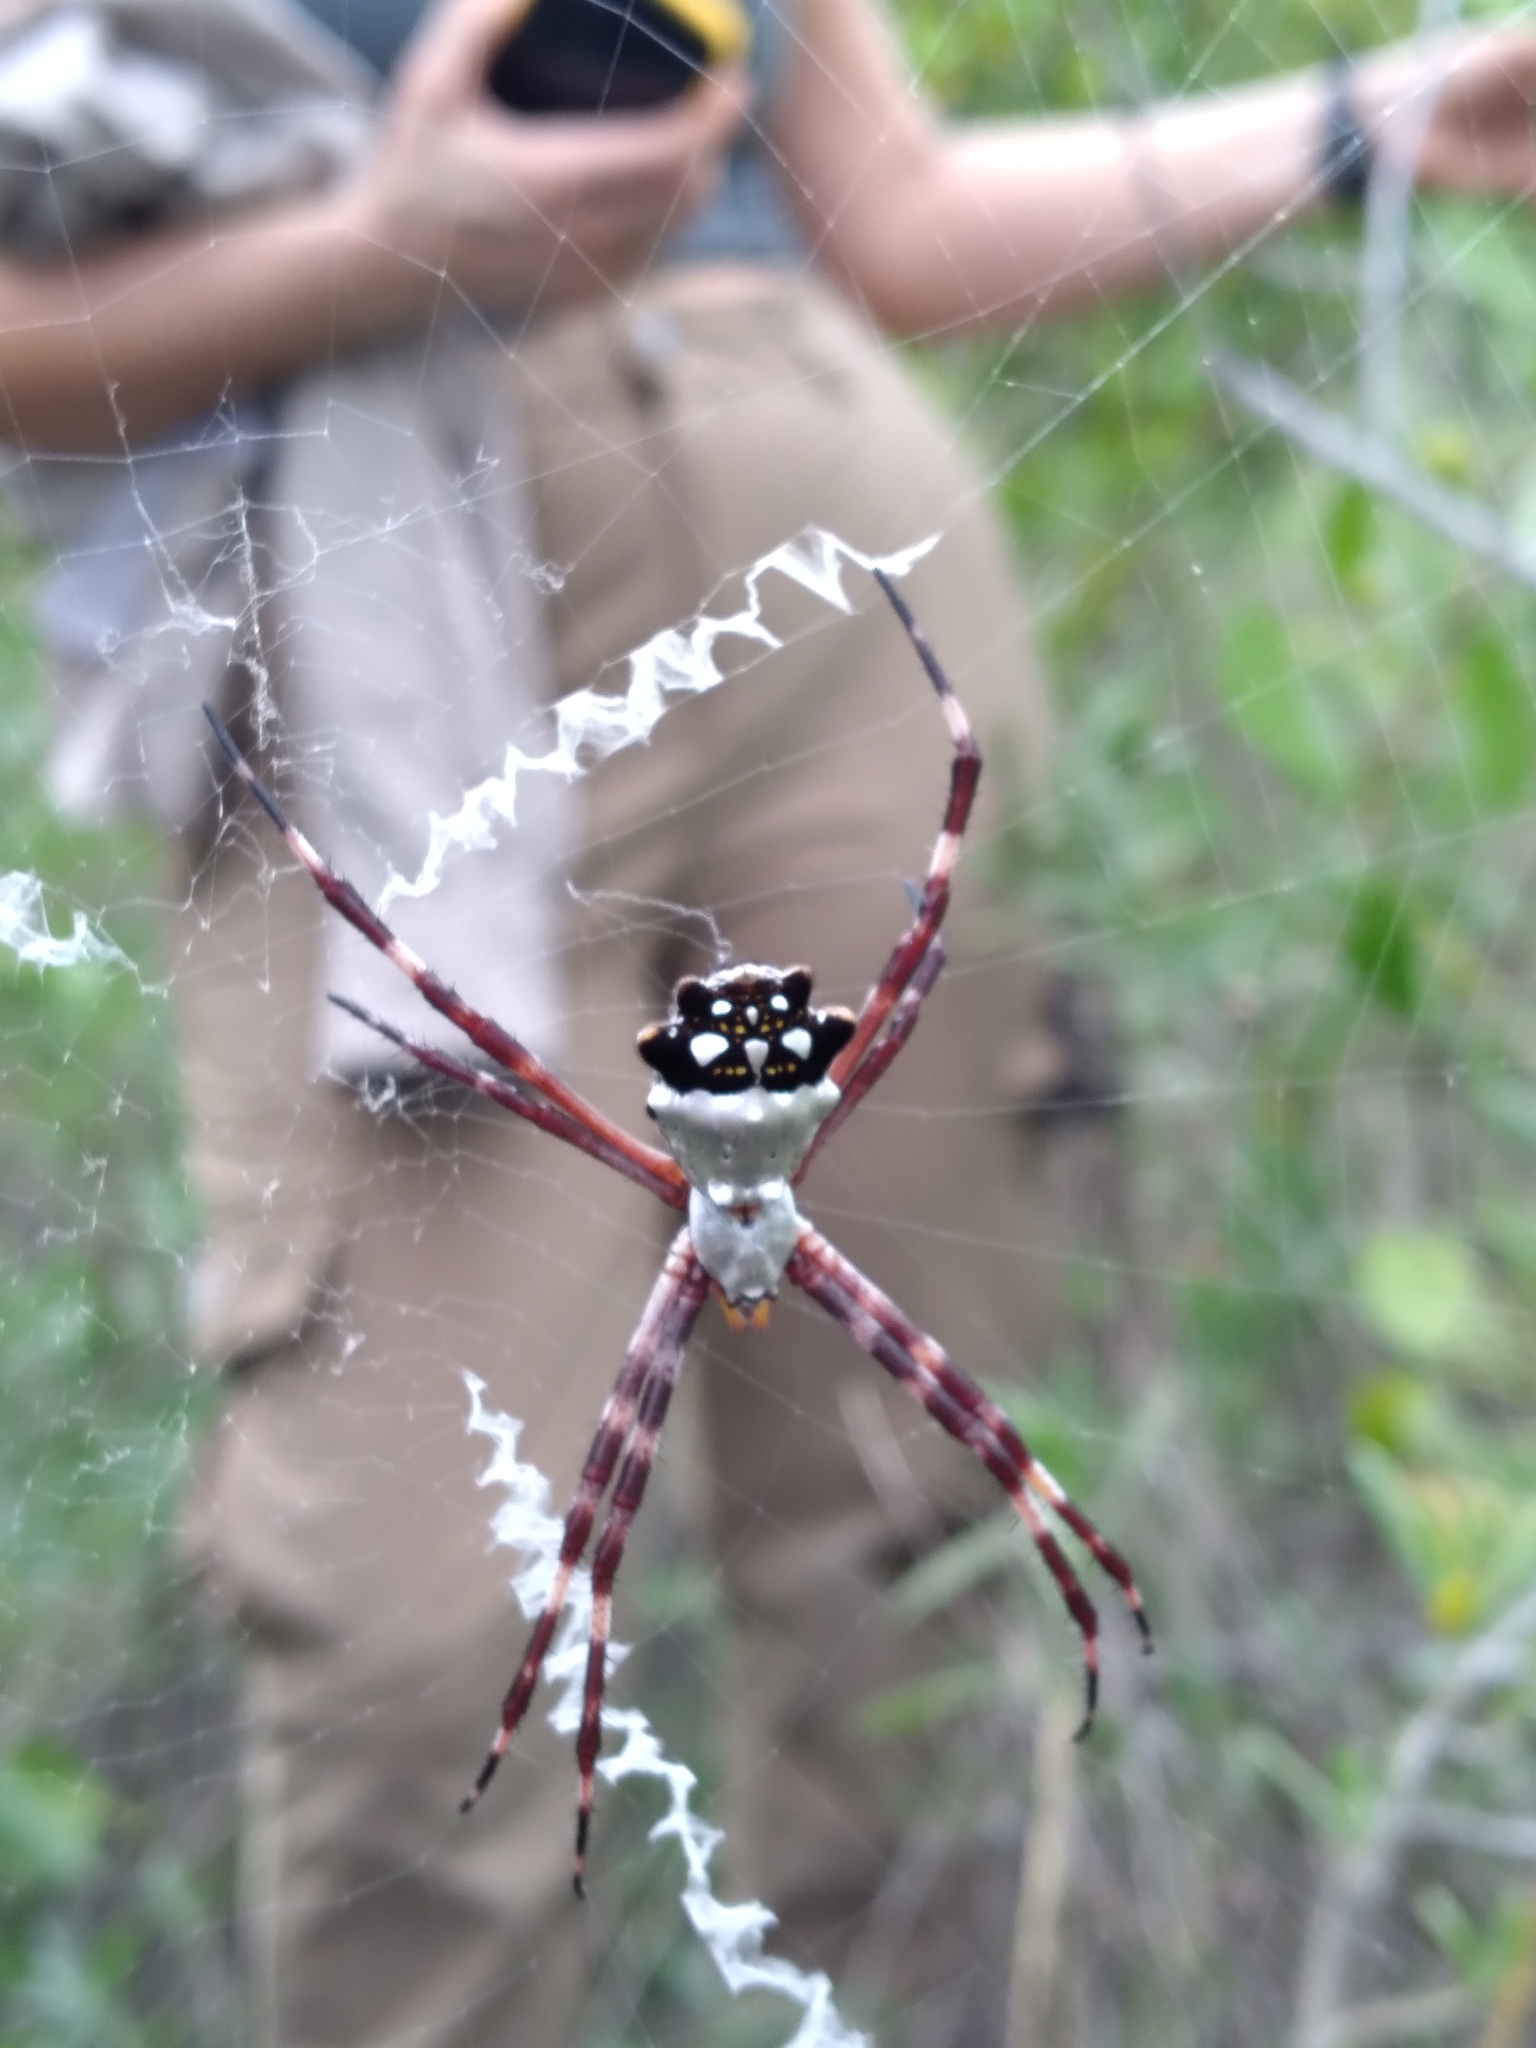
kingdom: Animalia
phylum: Arthropoda
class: Arachnida
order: Araneae
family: Araneidae
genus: Argiope
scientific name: Argiope argentata
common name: Orb weavers
